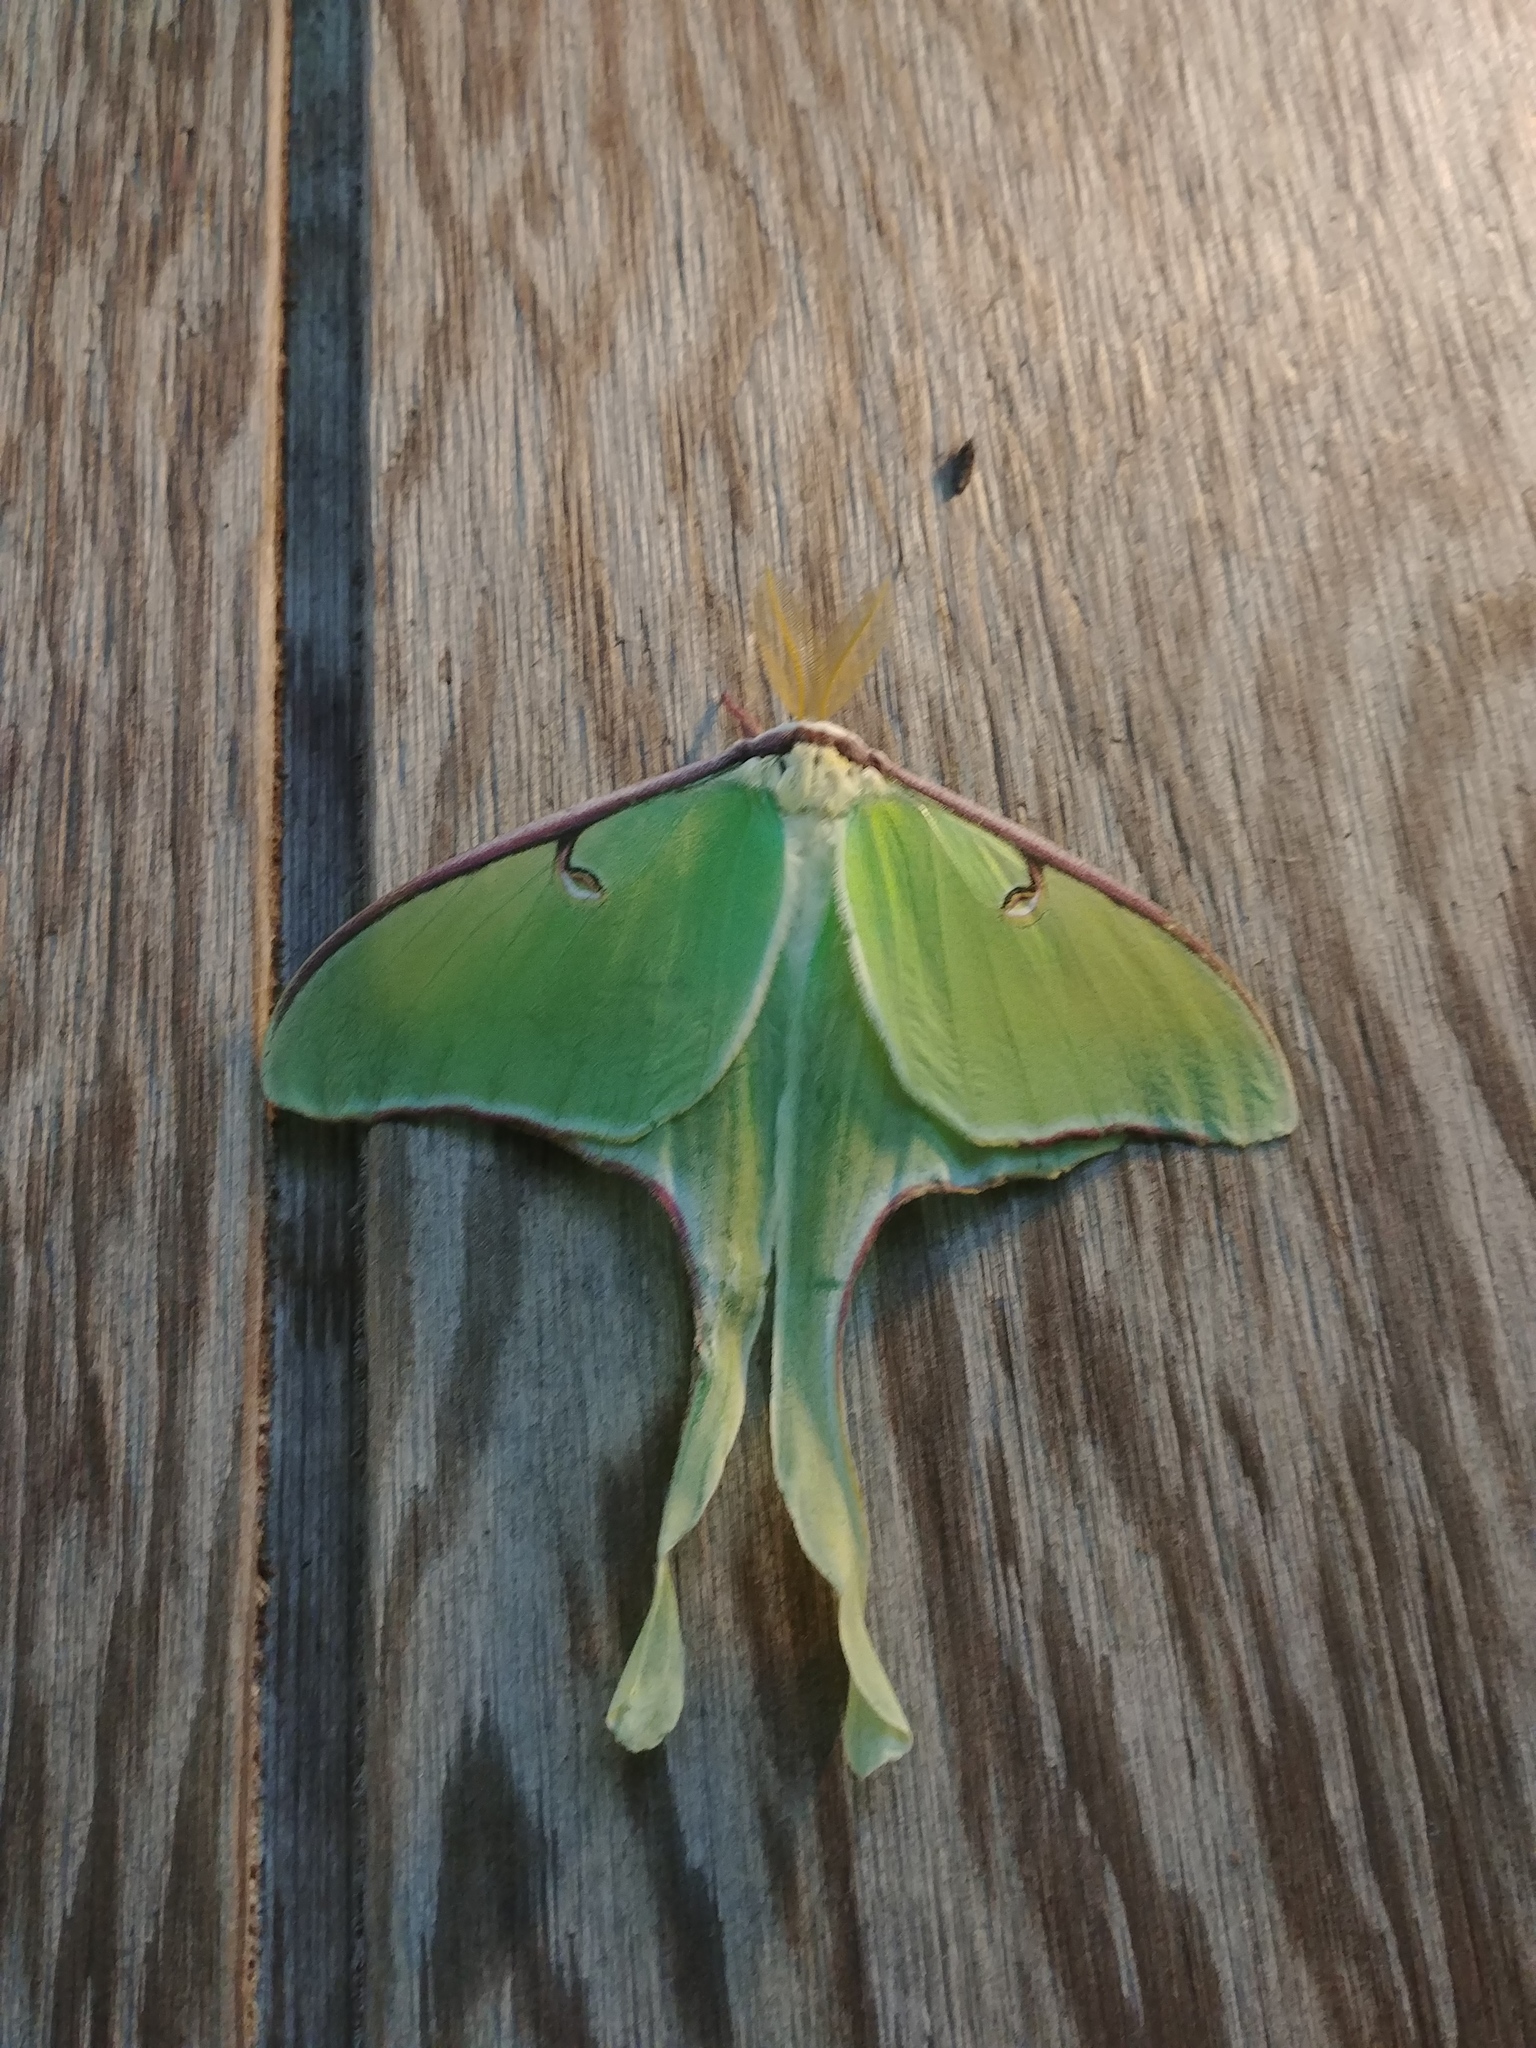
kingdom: Animalia
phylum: Arthropoda
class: Insecta
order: Lepidoptera
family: Saturniidae
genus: Actias
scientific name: Actias luna
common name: Luna moth
